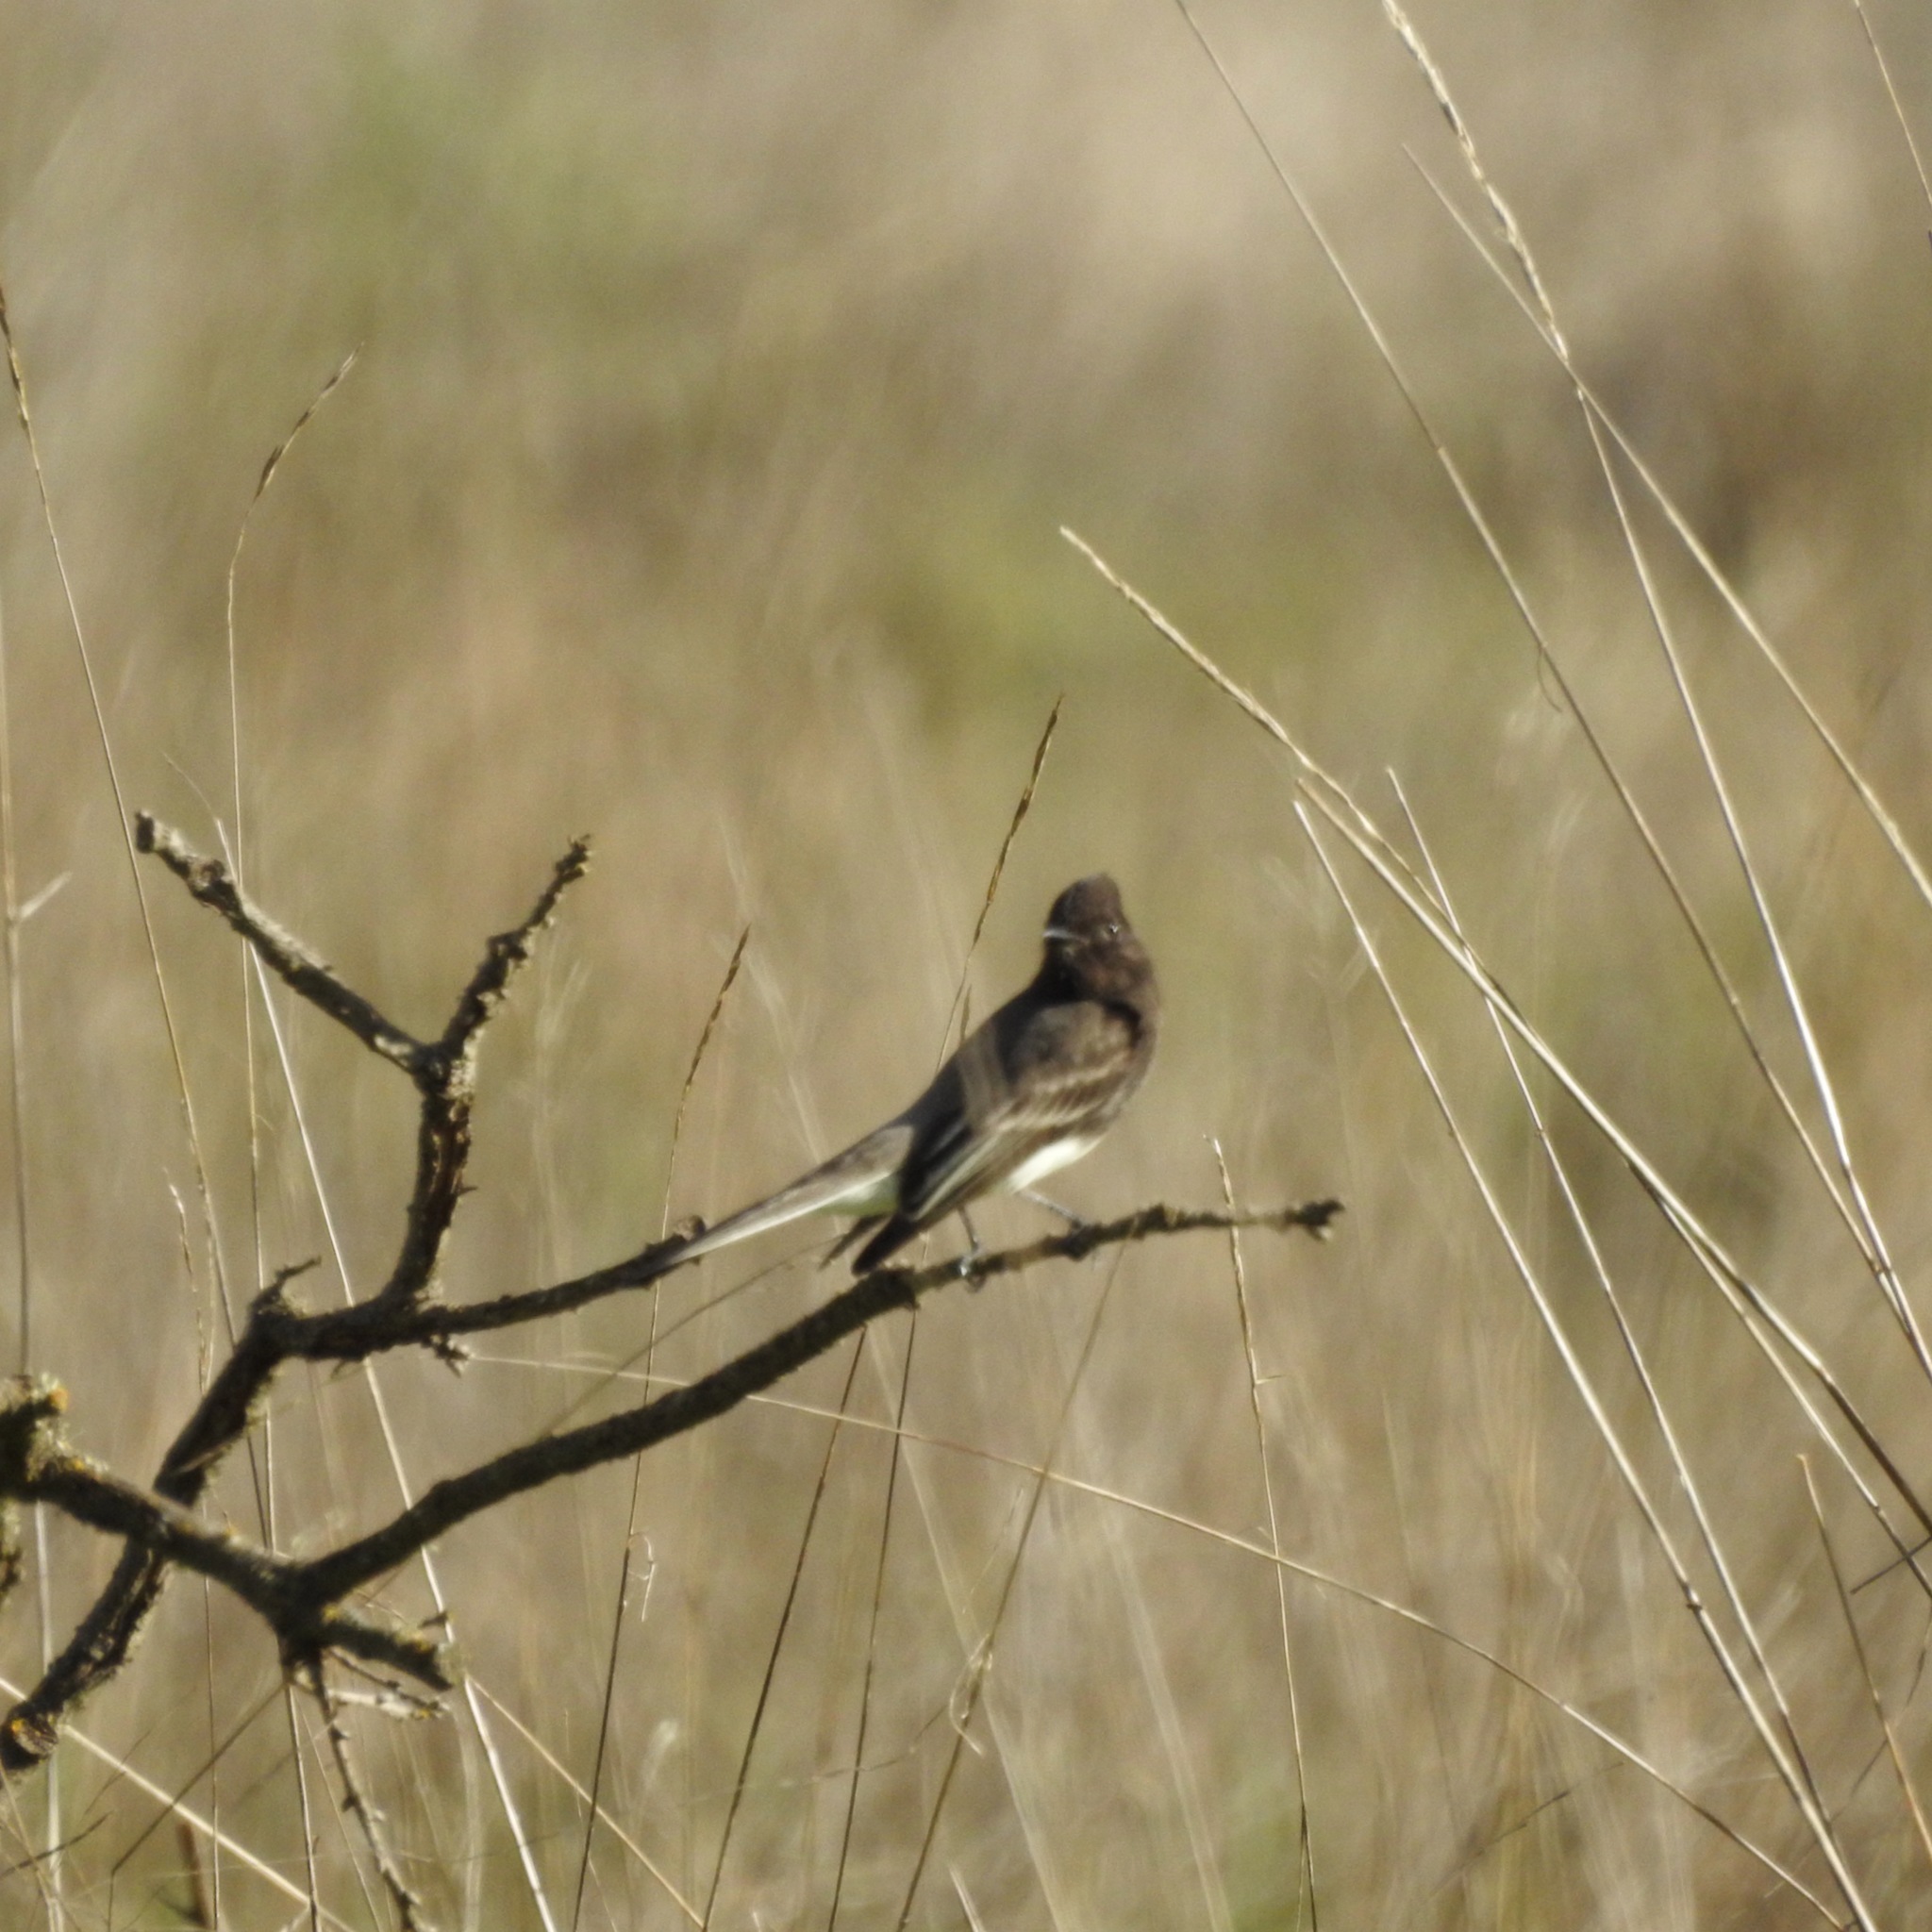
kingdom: Animalia
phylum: Chordata
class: Aves
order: Passeriformes
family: Tyrannidae
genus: Sayornis
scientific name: Sayornis nigricans
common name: Black phoebe
